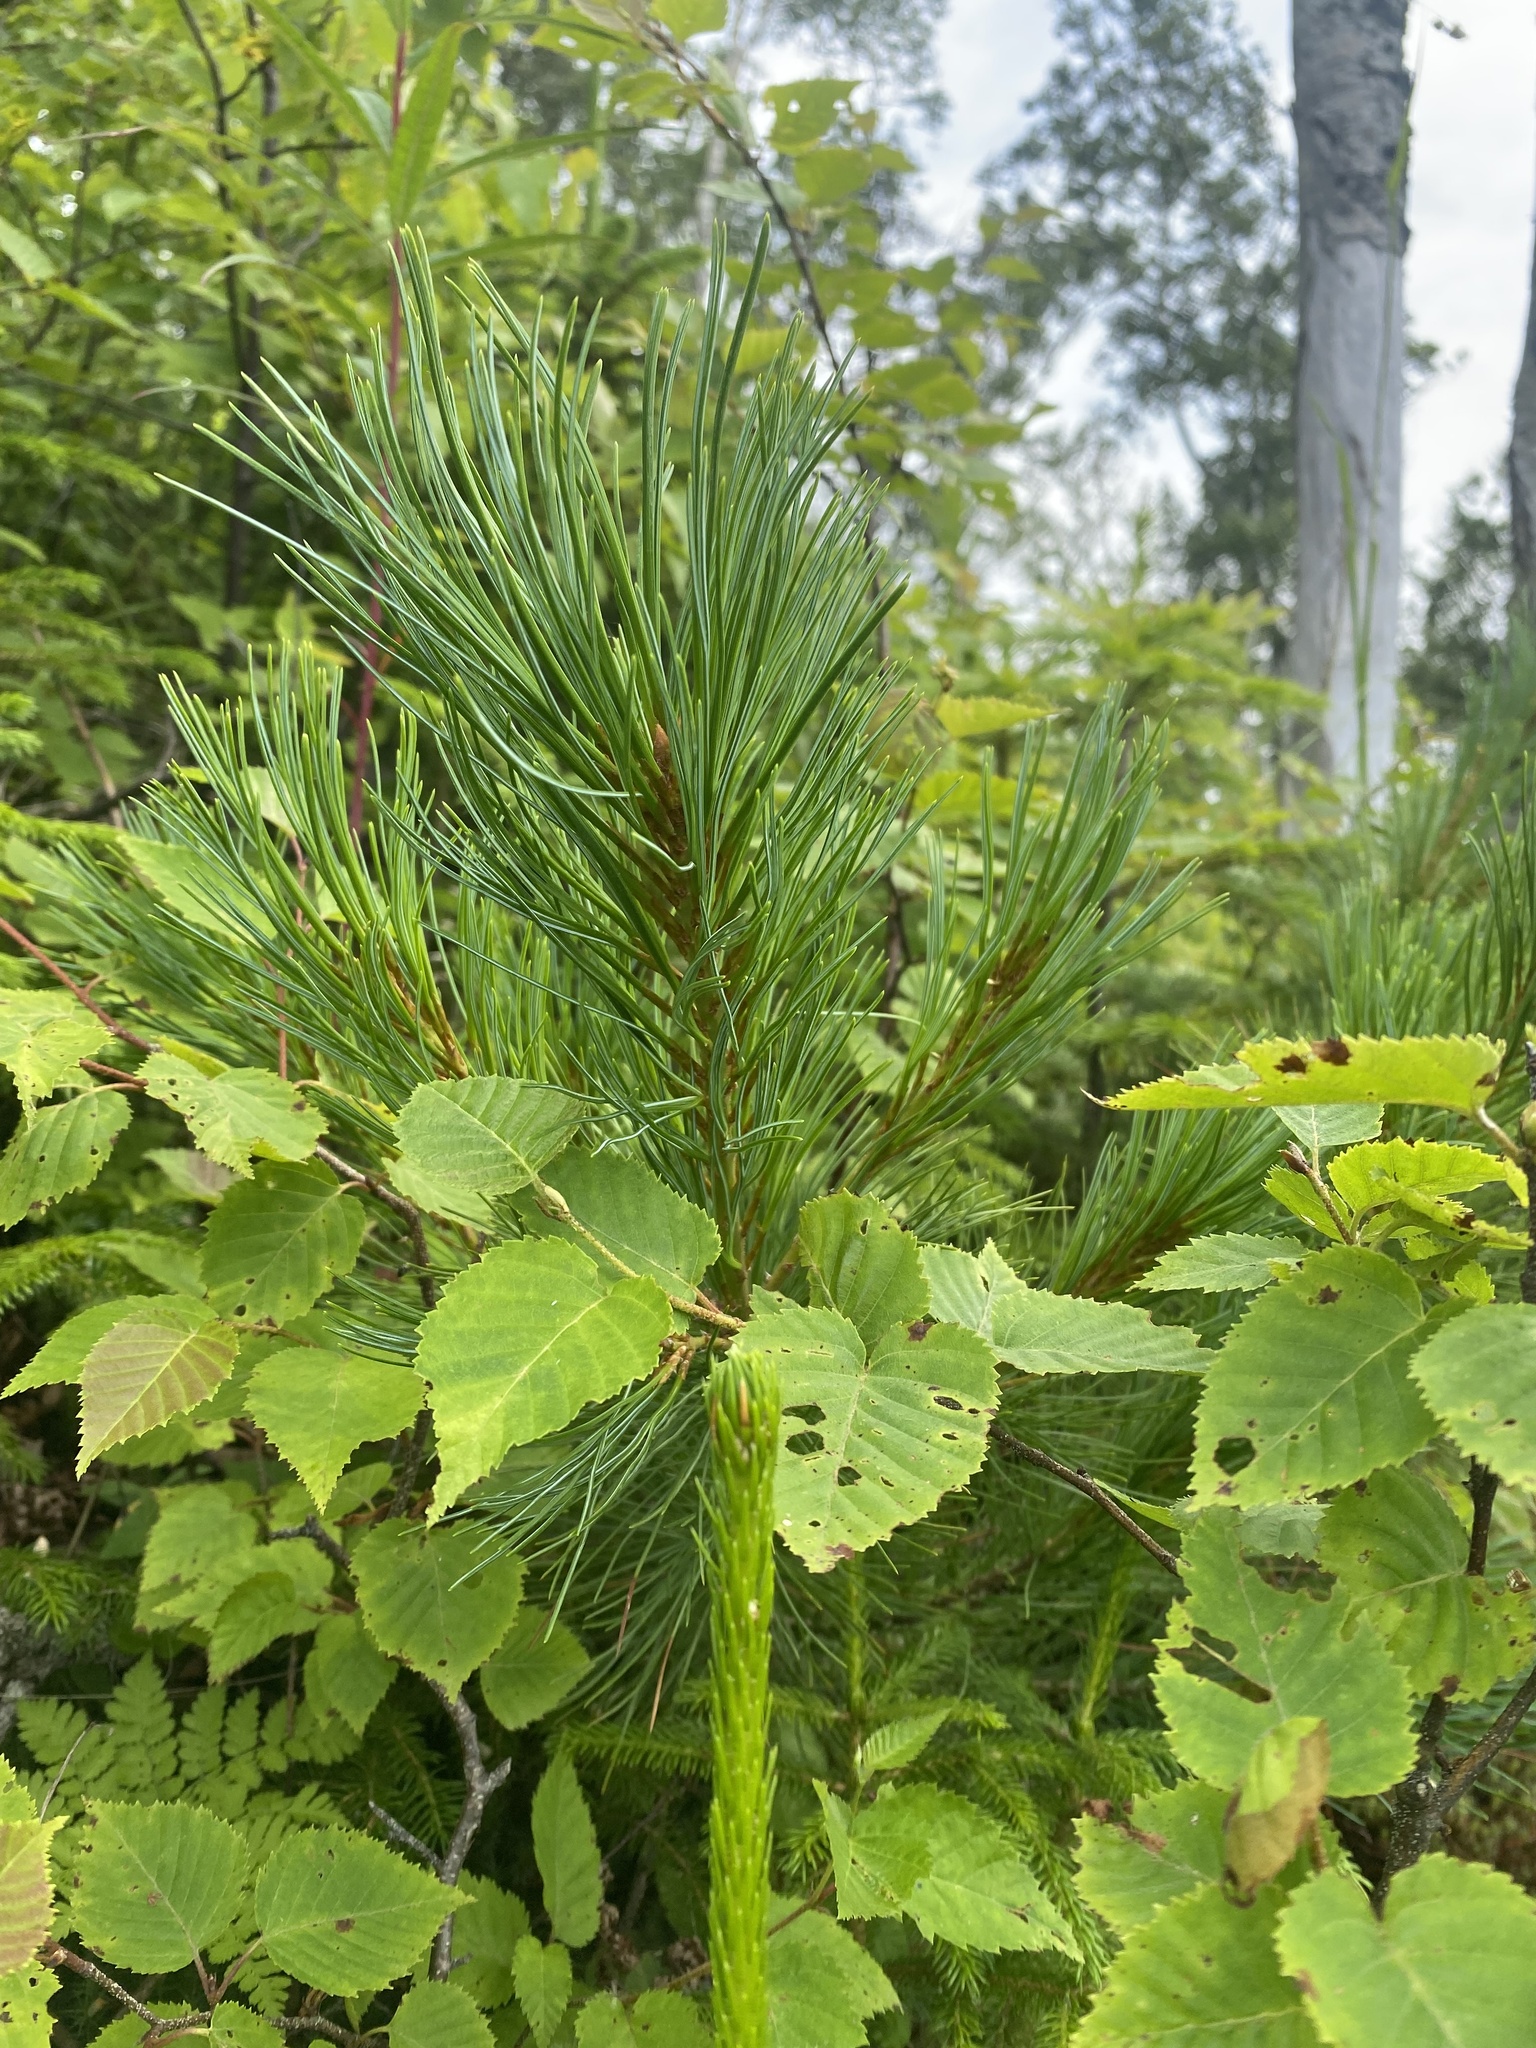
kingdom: Plantae
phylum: Tracheophyta
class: Pinopsida
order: Pinales
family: Pinaceae
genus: Pinus
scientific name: Pinus pumila
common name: Dwarf siberian pine
